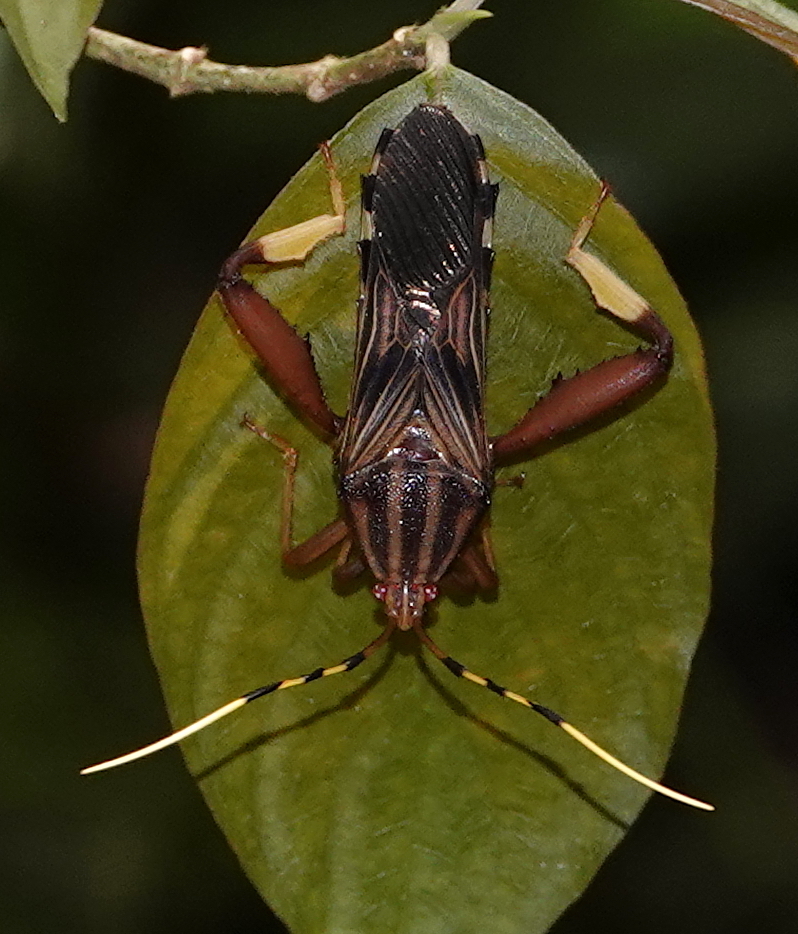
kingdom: Animalia
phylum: Arthropoda
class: Insecta
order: Hemiptera
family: Coreidae
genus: Spathophora
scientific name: Spathophora biclavata
